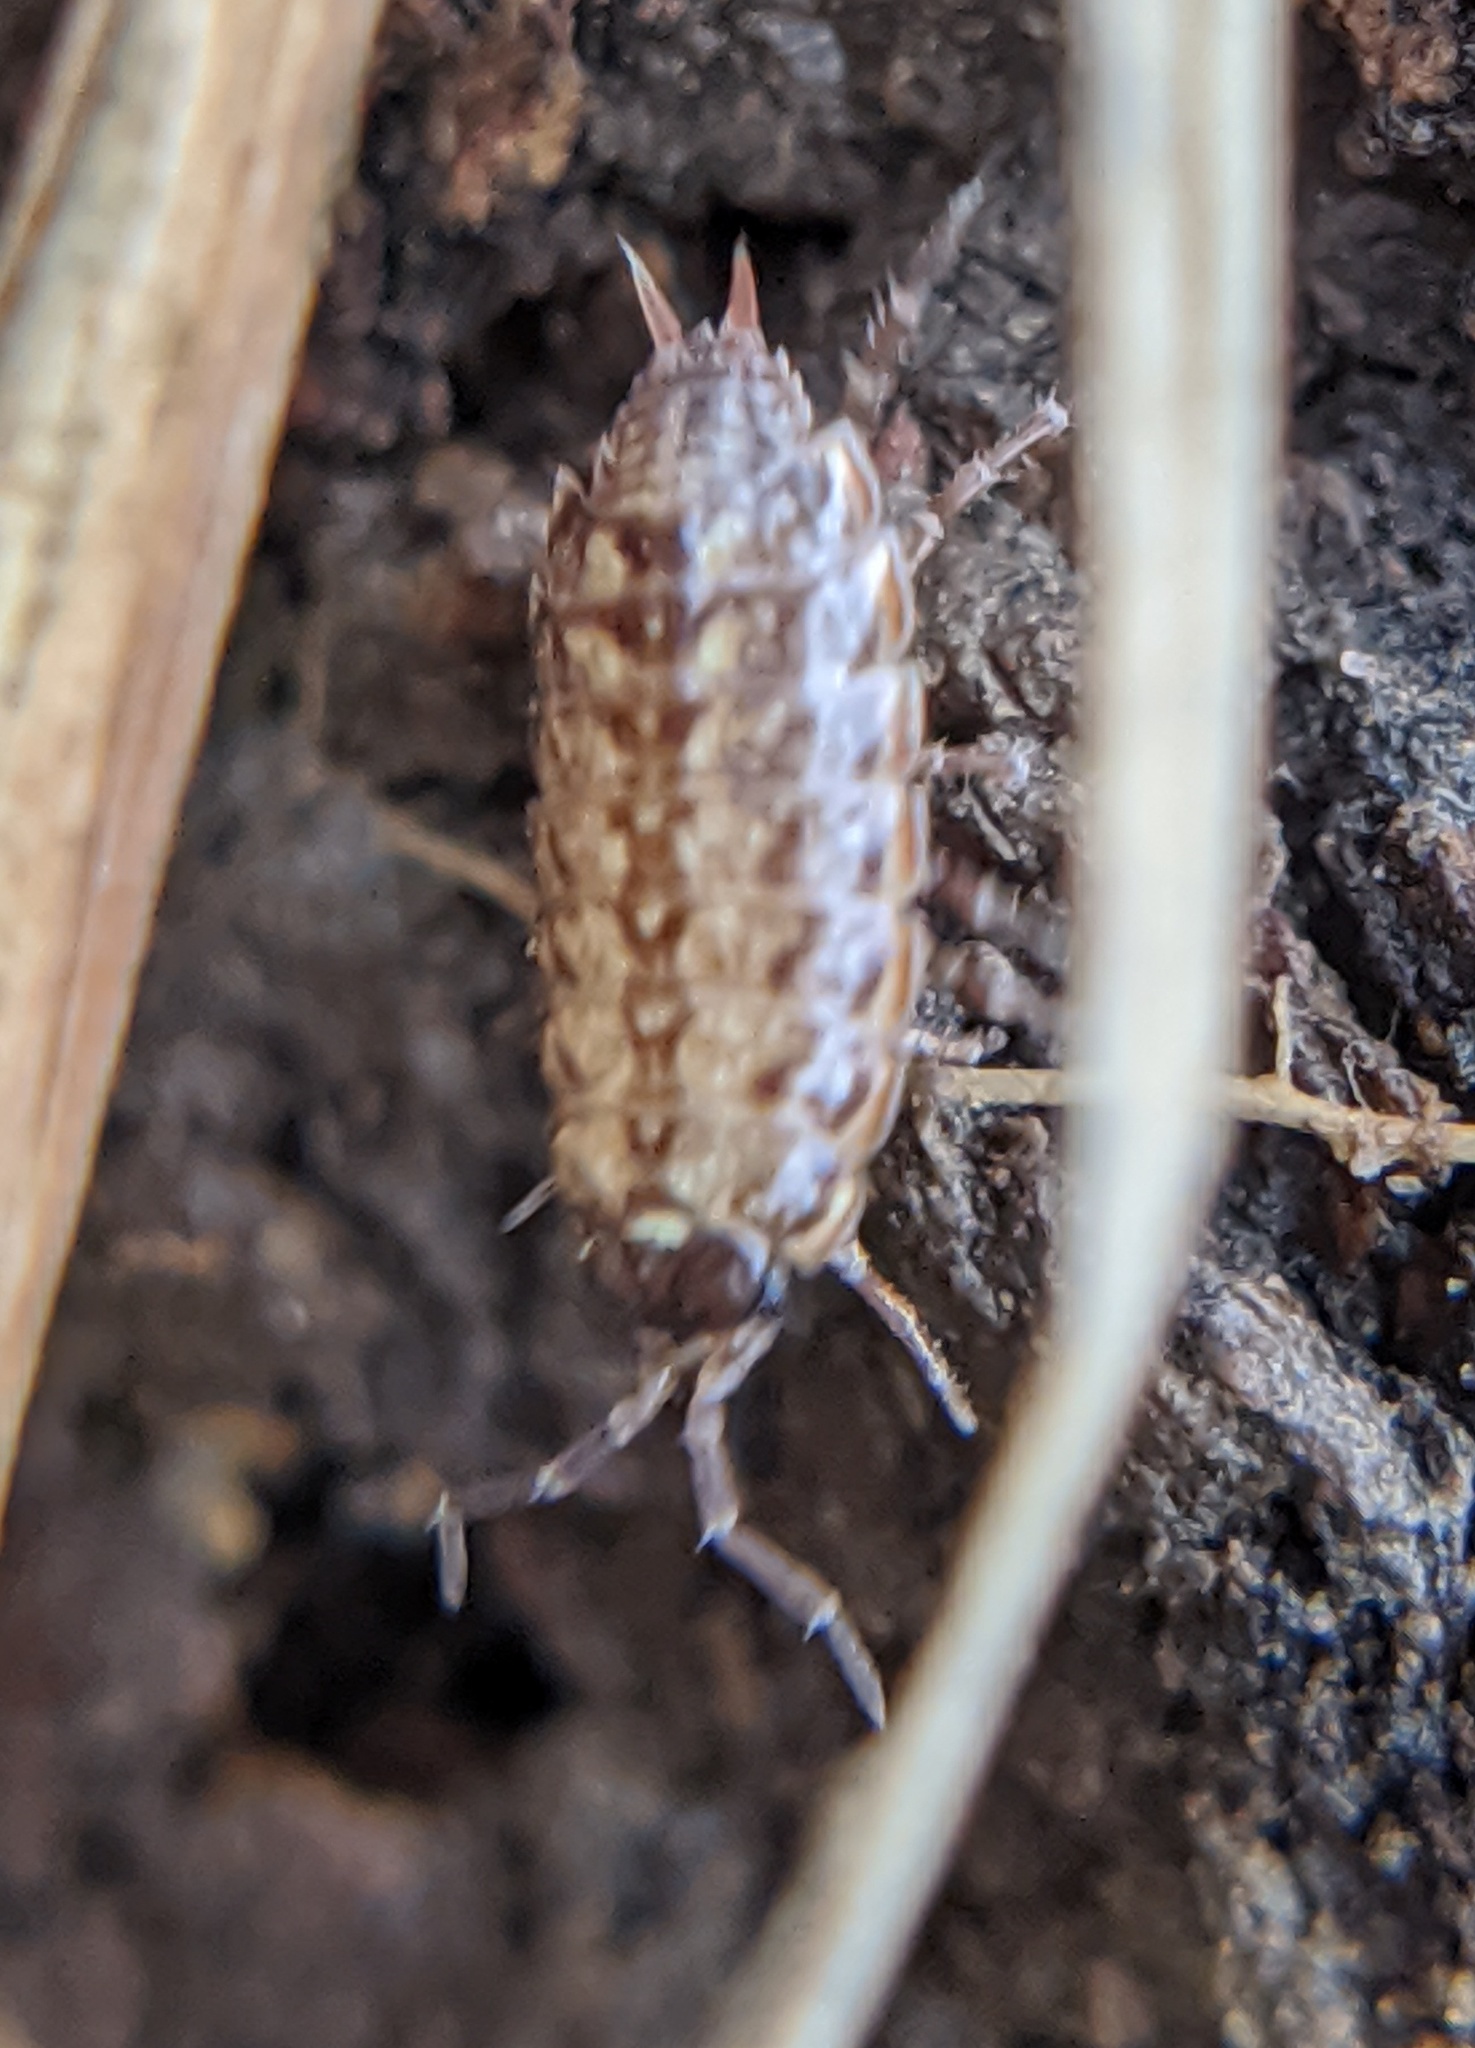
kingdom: Animalia
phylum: Arthropoda
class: Malacostraca
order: Isopoda
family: Philosciidae
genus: Philoscia
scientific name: Philoscia muscorum
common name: Common striped woodlouse
